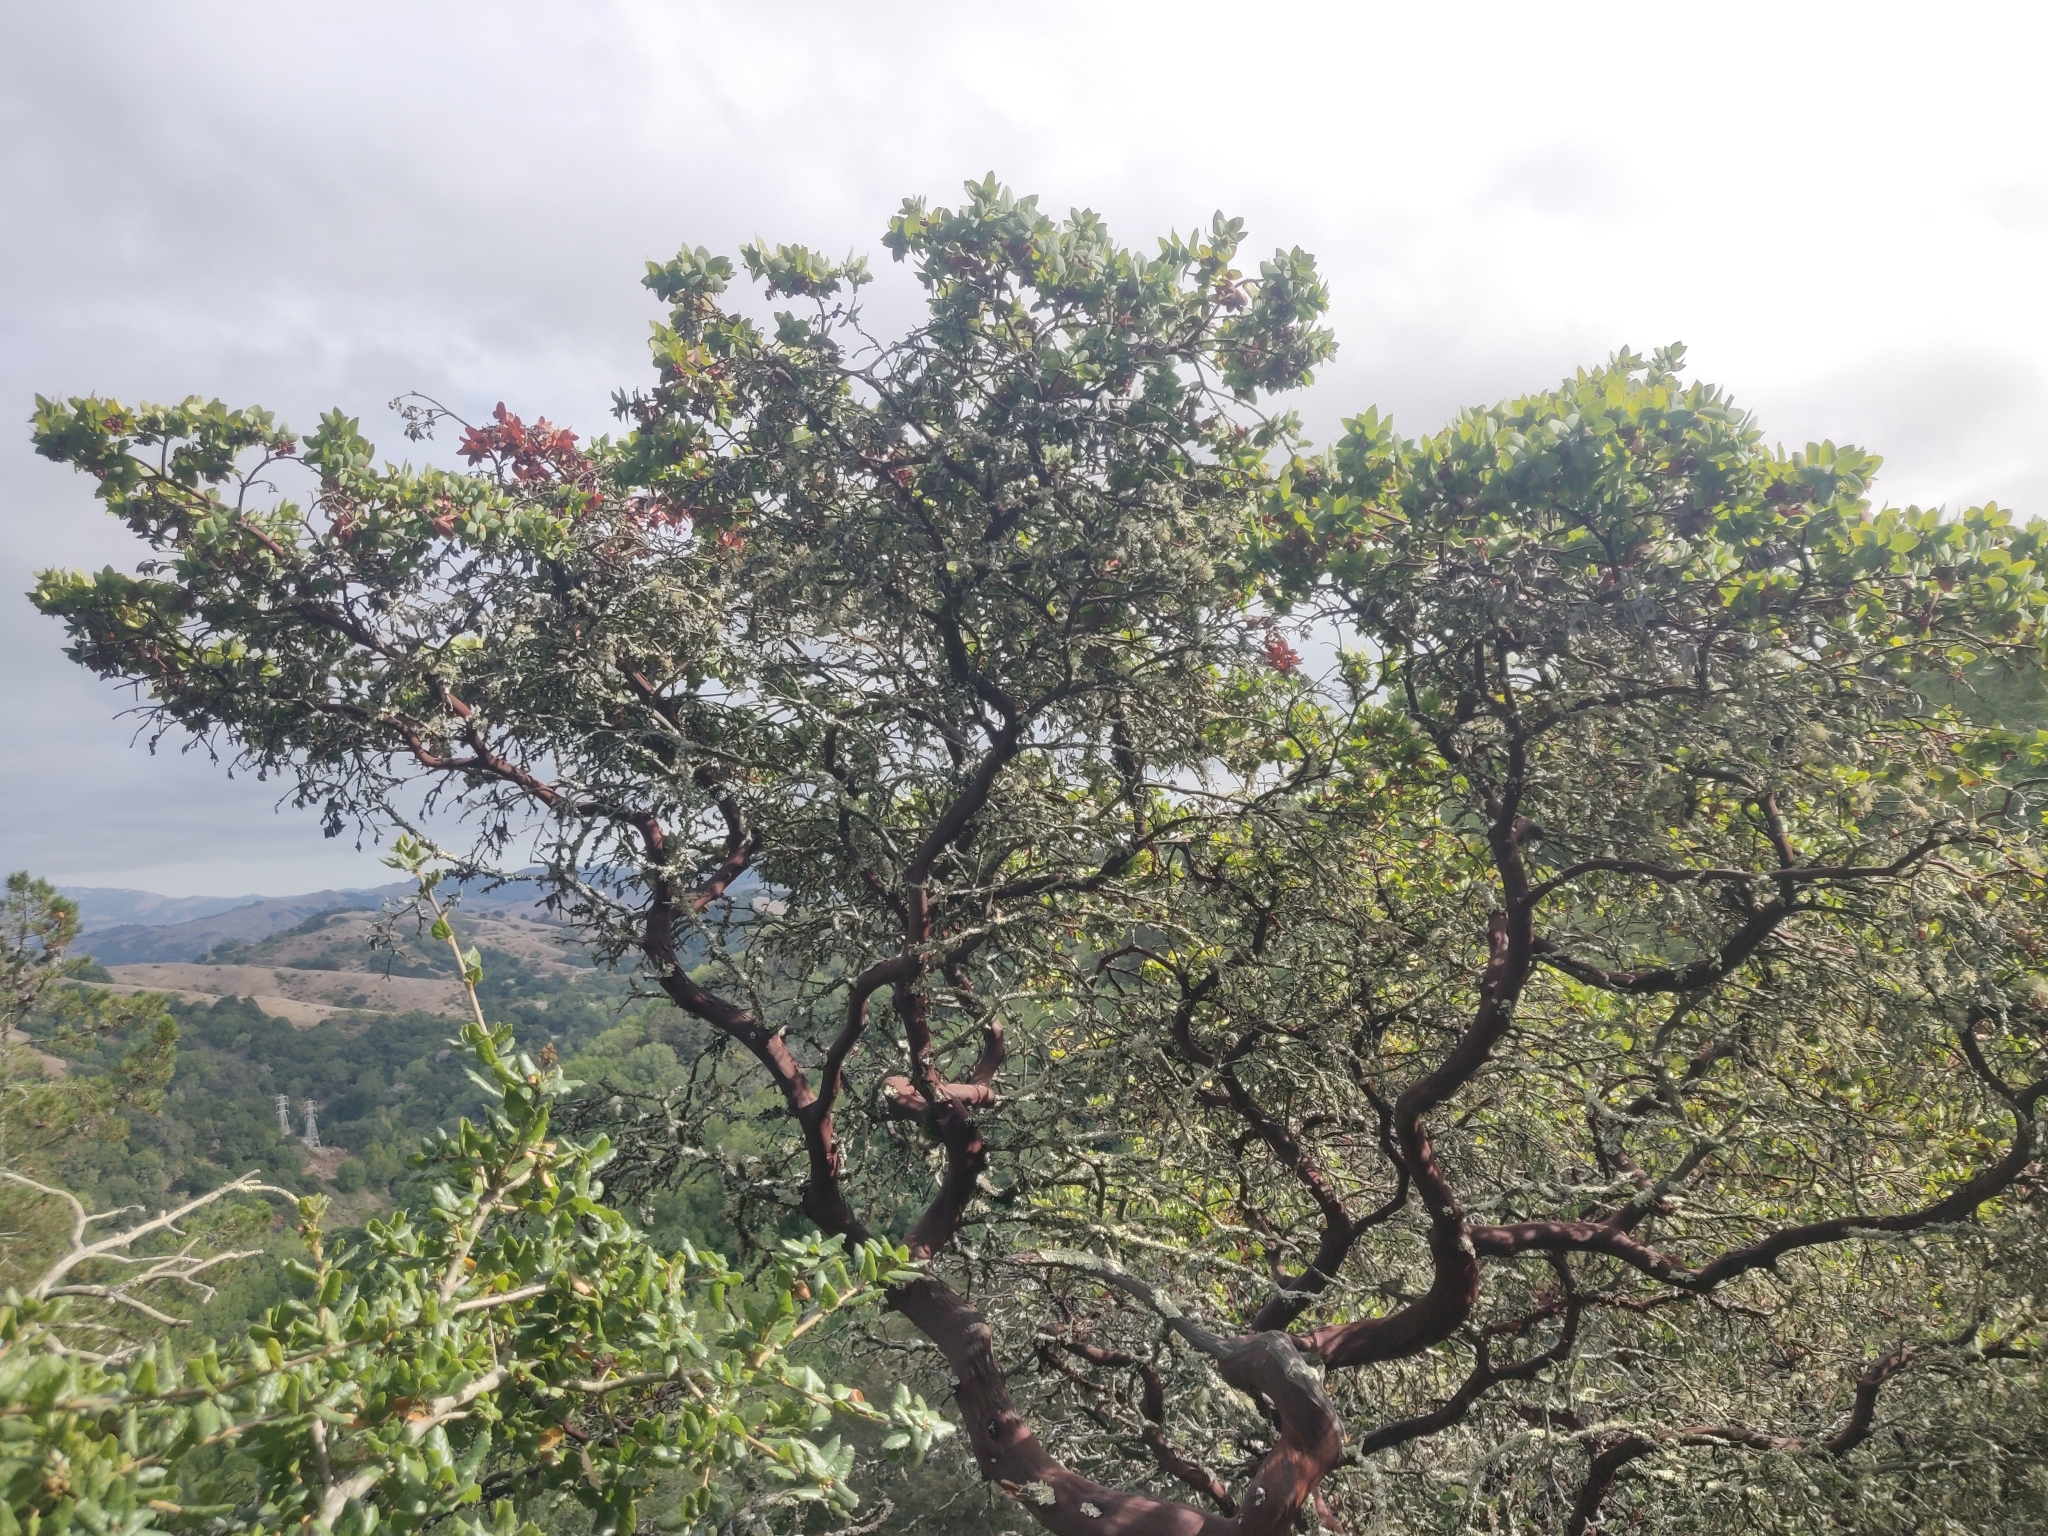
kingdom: Plantae
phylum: Tracheophyta
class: Magnoliopsida
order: Ericales
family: Ericaceae
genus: Arctostaphylos
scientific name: Arctostaphylos pallida
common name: Pallid manzanita
